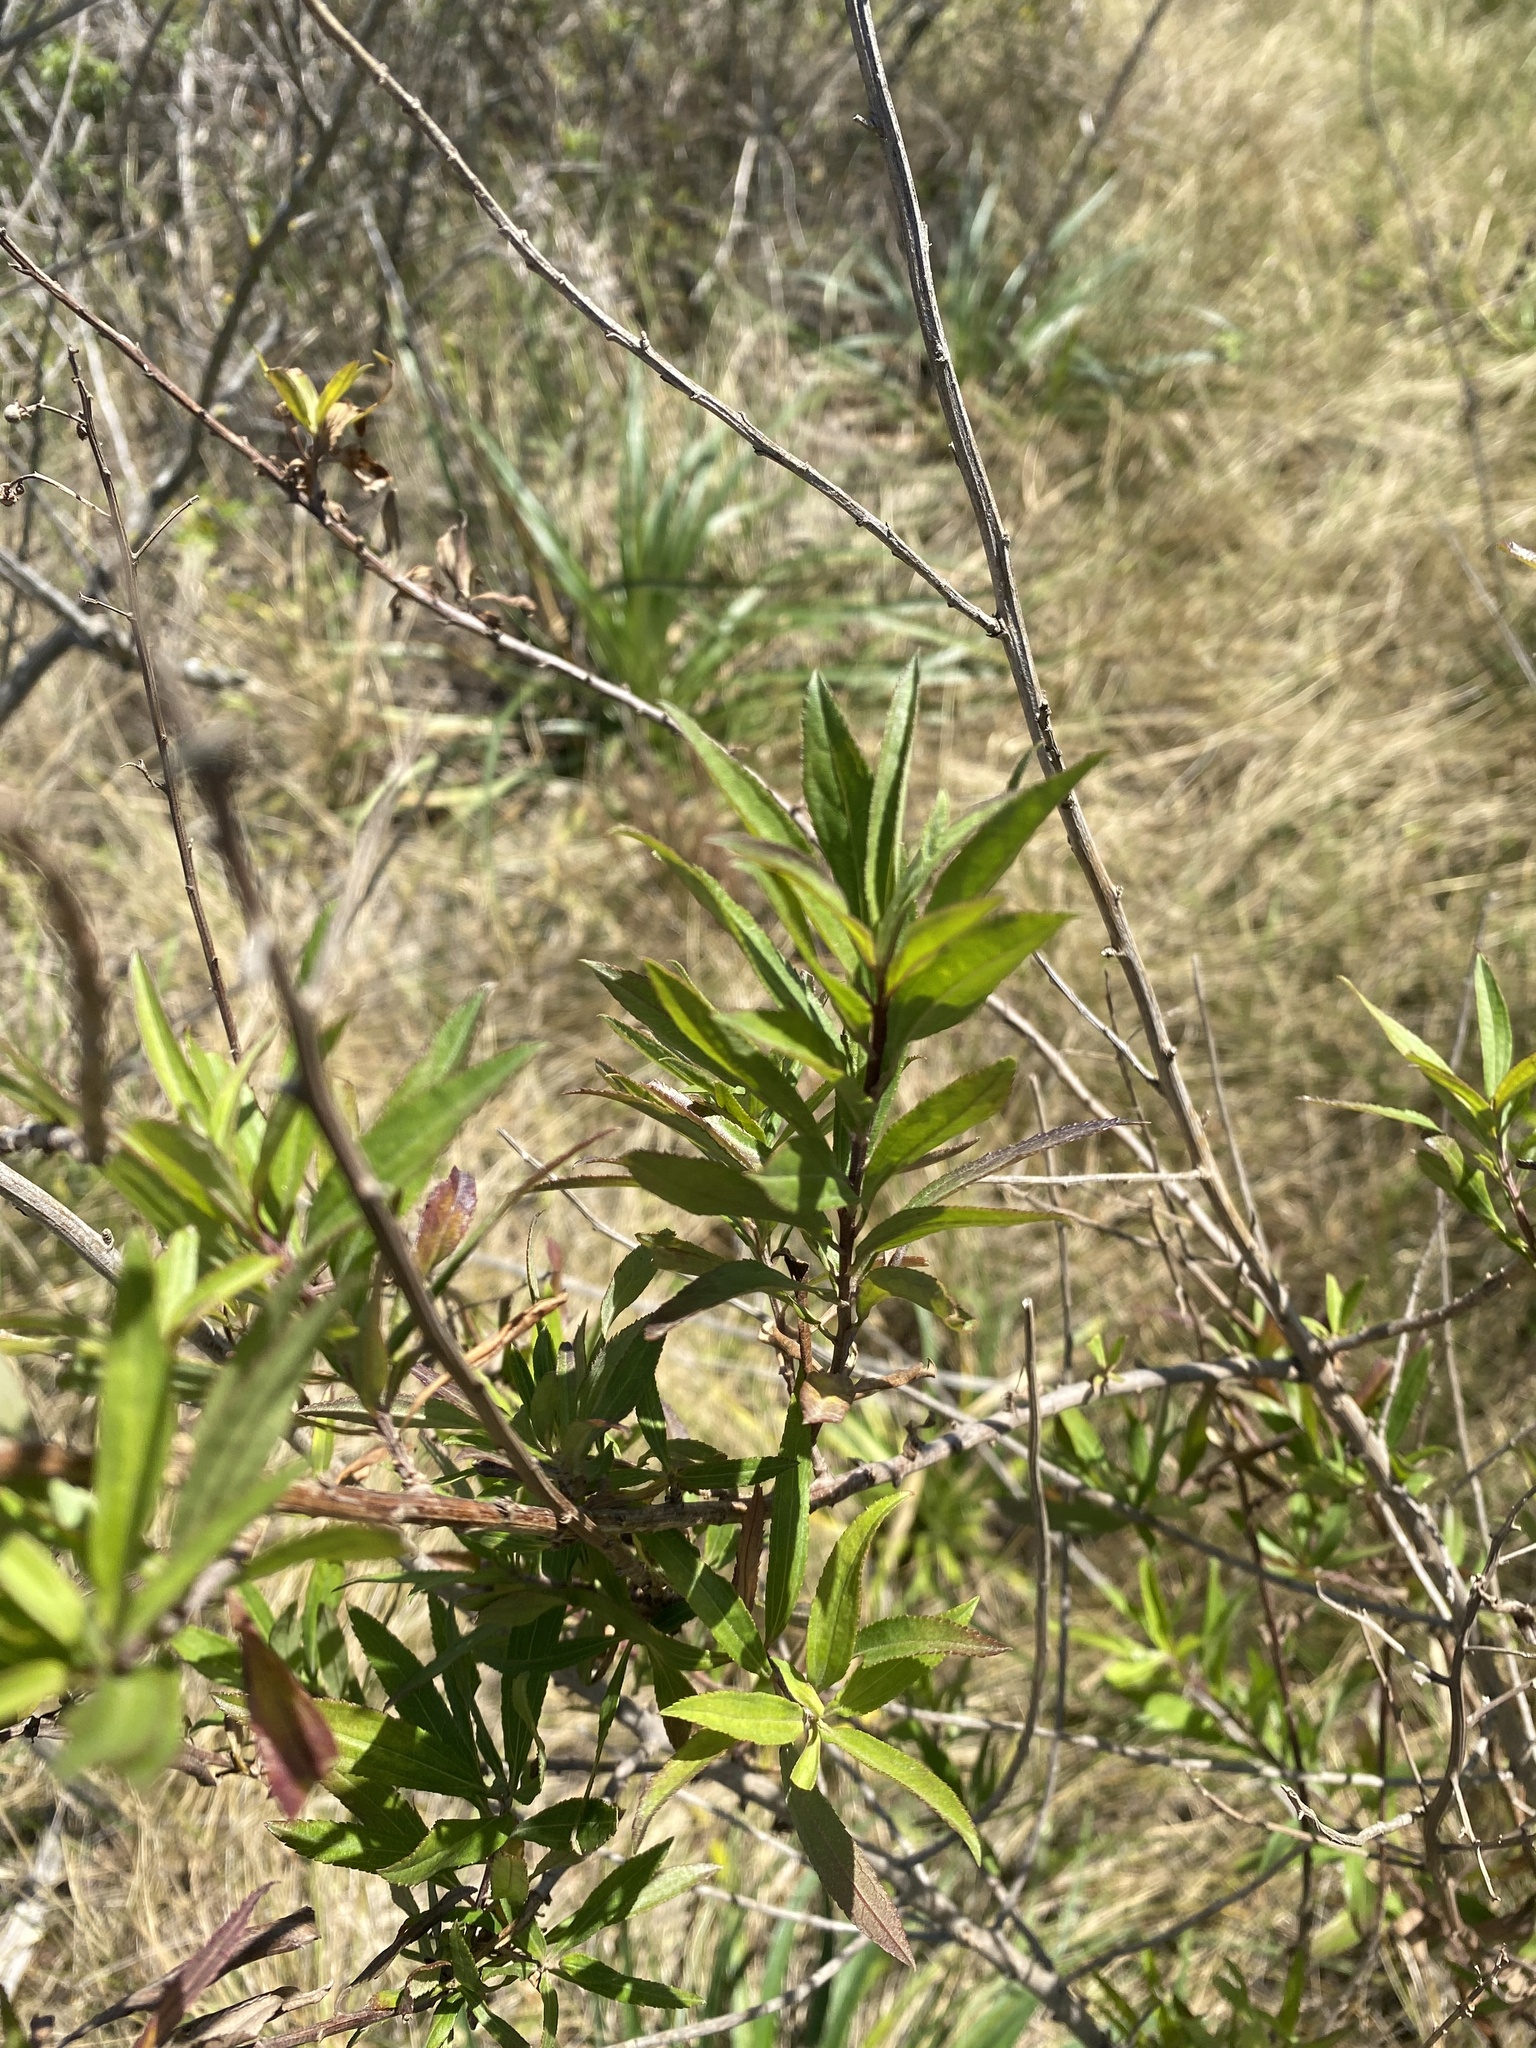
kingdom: Plantae
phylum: Tracheophyta
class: Magnoliopsida
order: Asterales
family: Asteraceae
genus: Baccharis
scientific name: Baccharis punctulata
